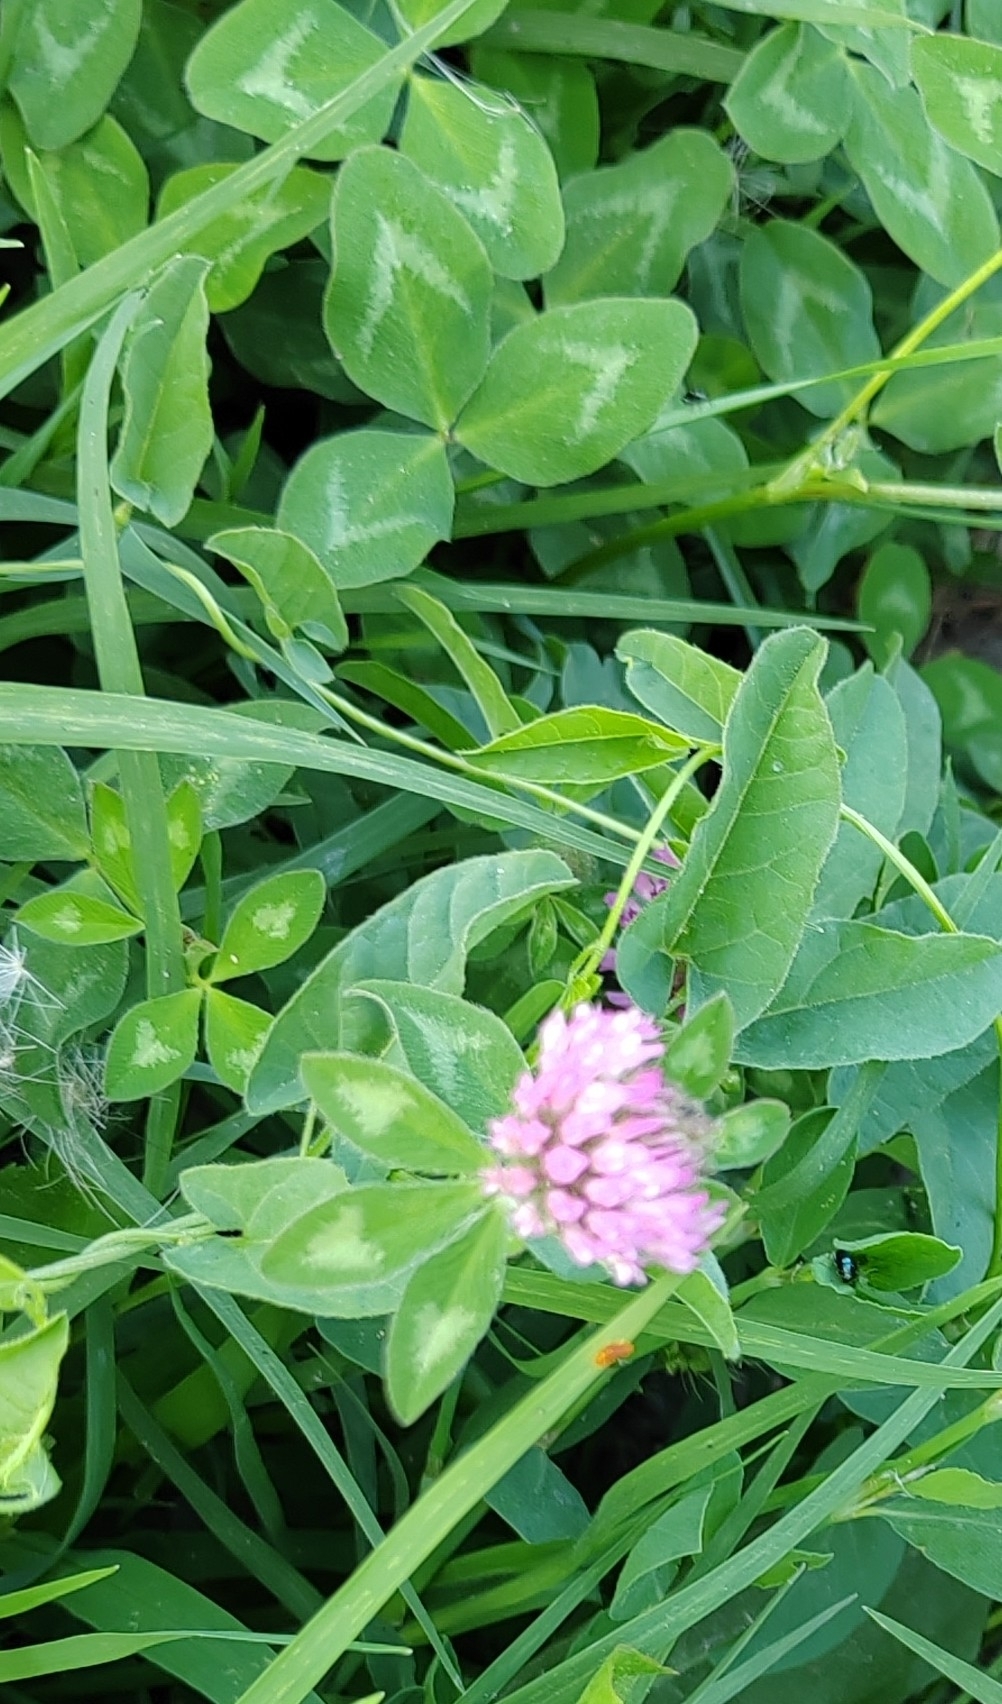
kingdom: Plantae
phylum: Tracheophyta
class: Magnoliopsida
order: Fabales
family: Fabaceae
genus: Trifolium
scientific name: Trifolium pratense
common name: Red clover
